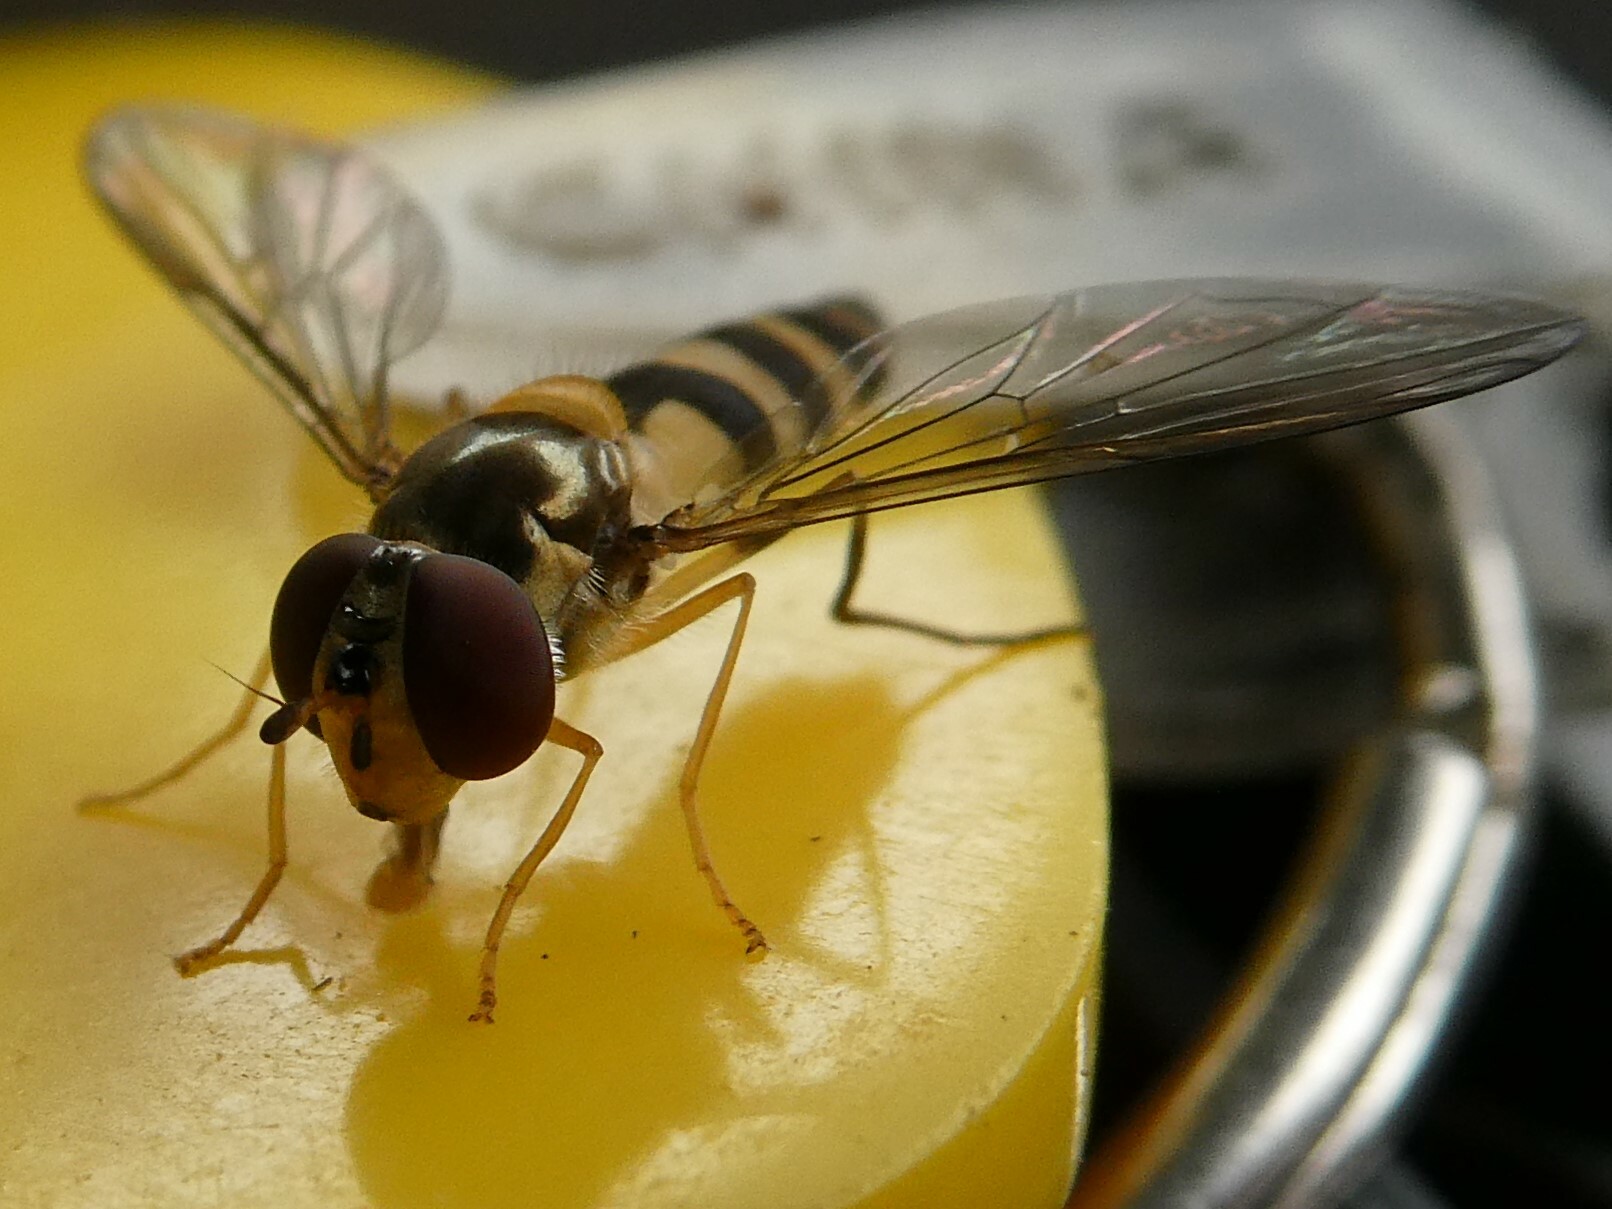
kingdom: Animalia
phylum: Arthropoda
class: Insecta
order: Diptera
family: Syrphidae
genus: Meliscaeva
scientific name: Meliscaeva cinctella
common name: American thintail fly
